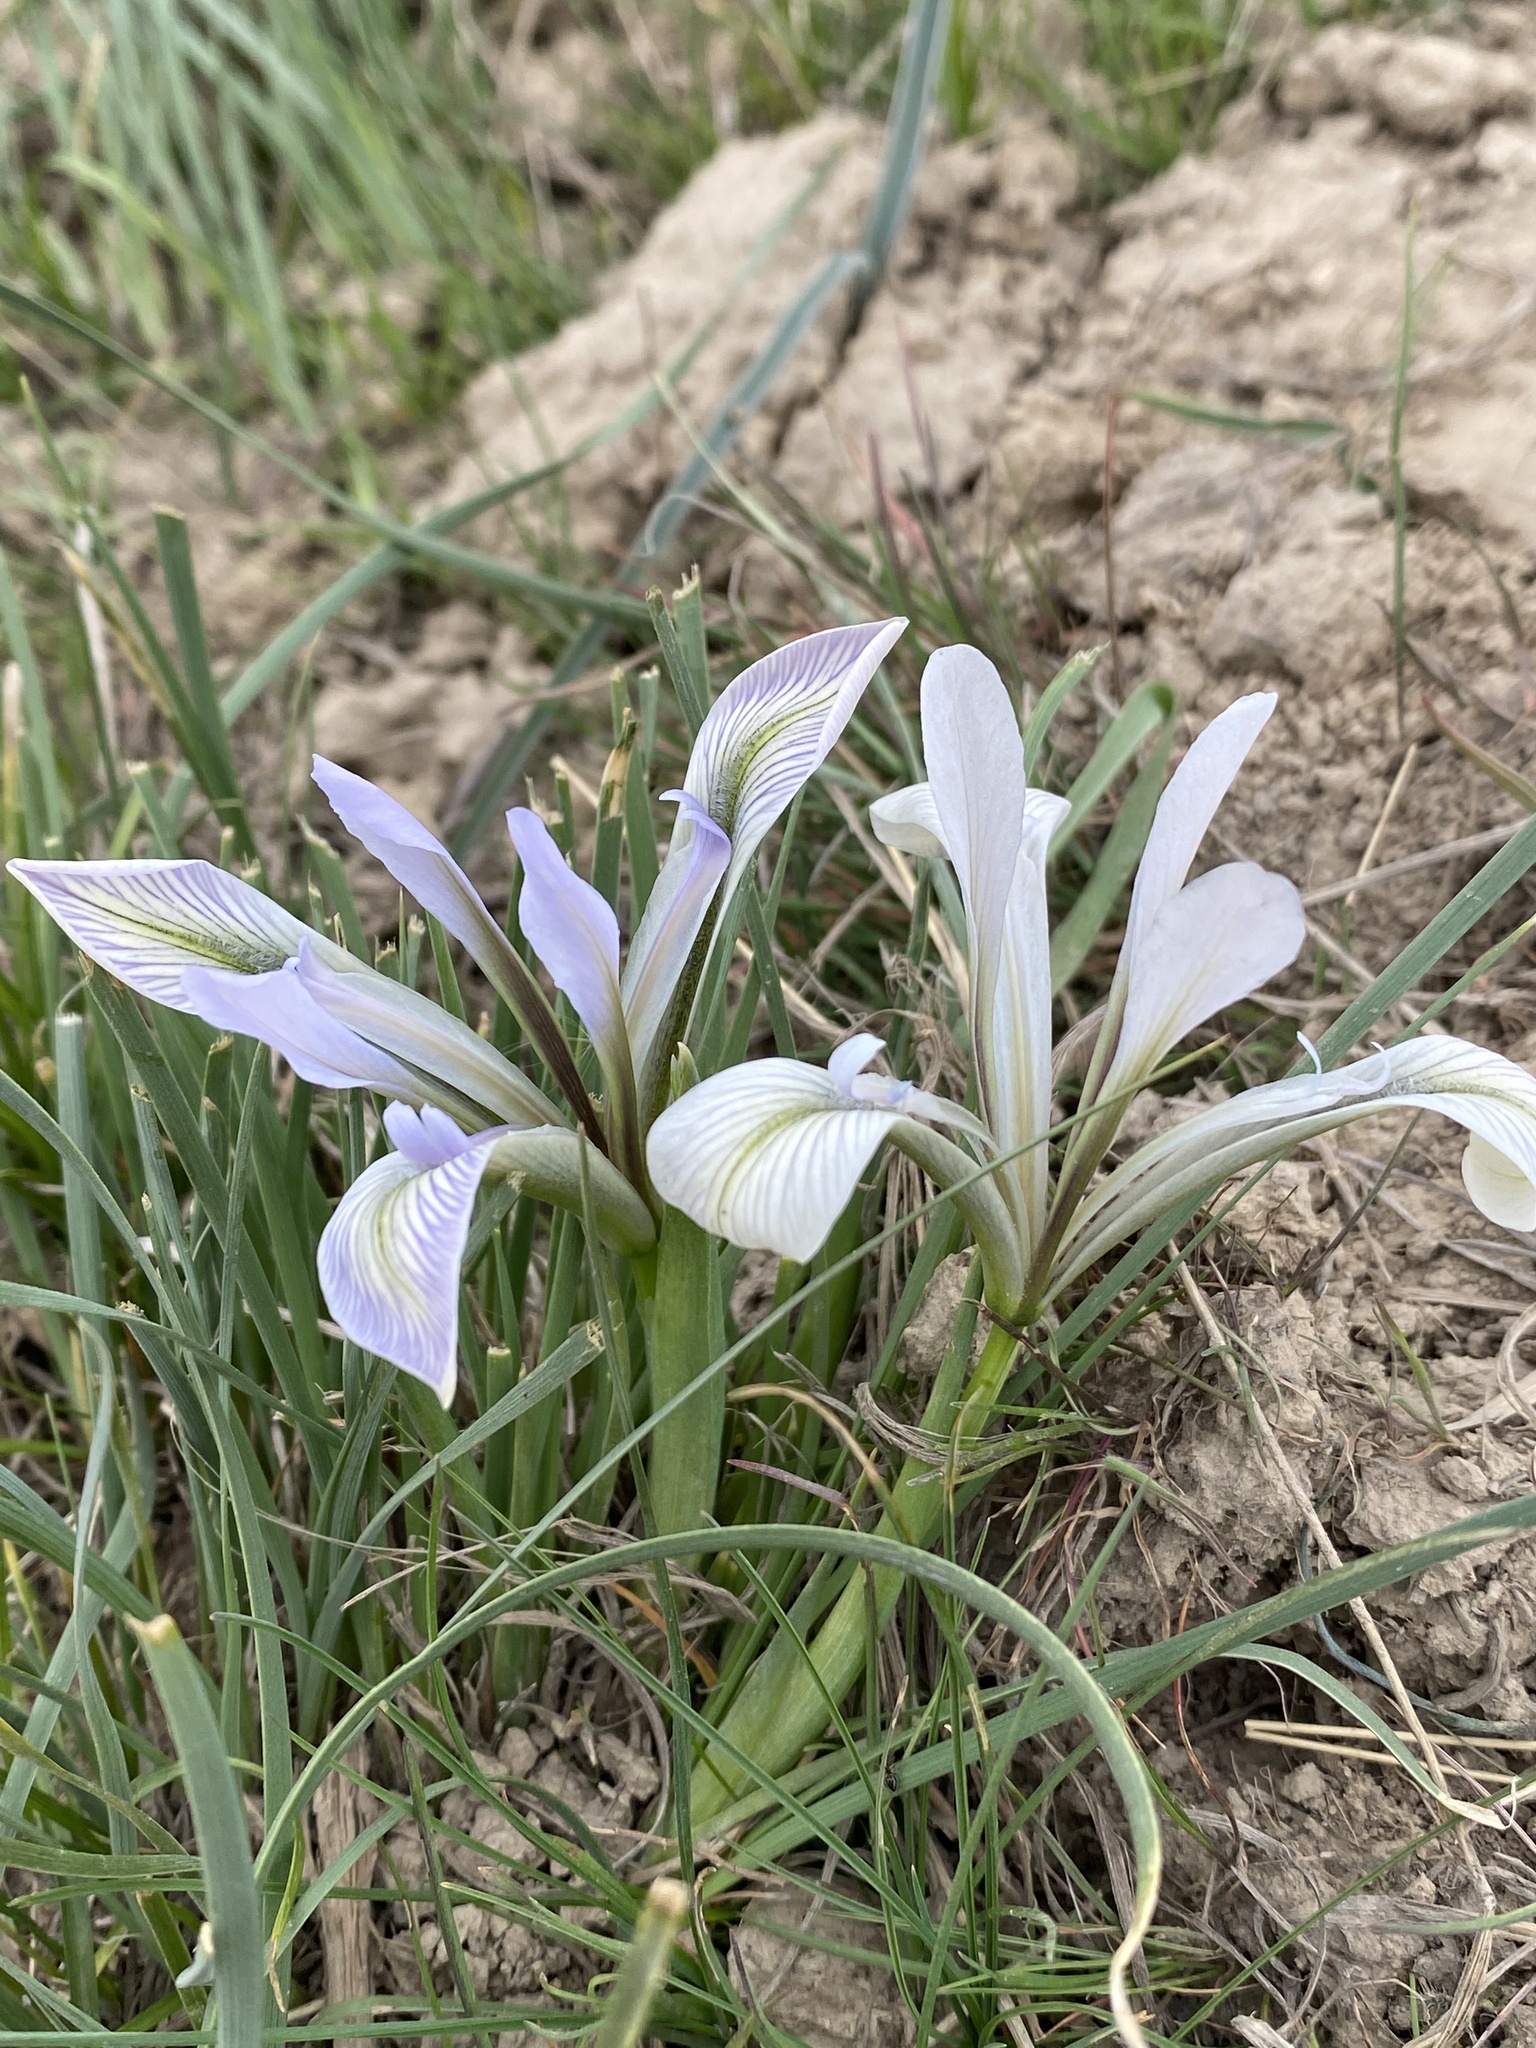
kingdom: Plantae
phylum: Tracheophyta
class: Liliopsida
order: Asparagales
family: Iridaceae
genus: Iris
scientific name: Iris loczyi
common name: Tian shan mountain iris
